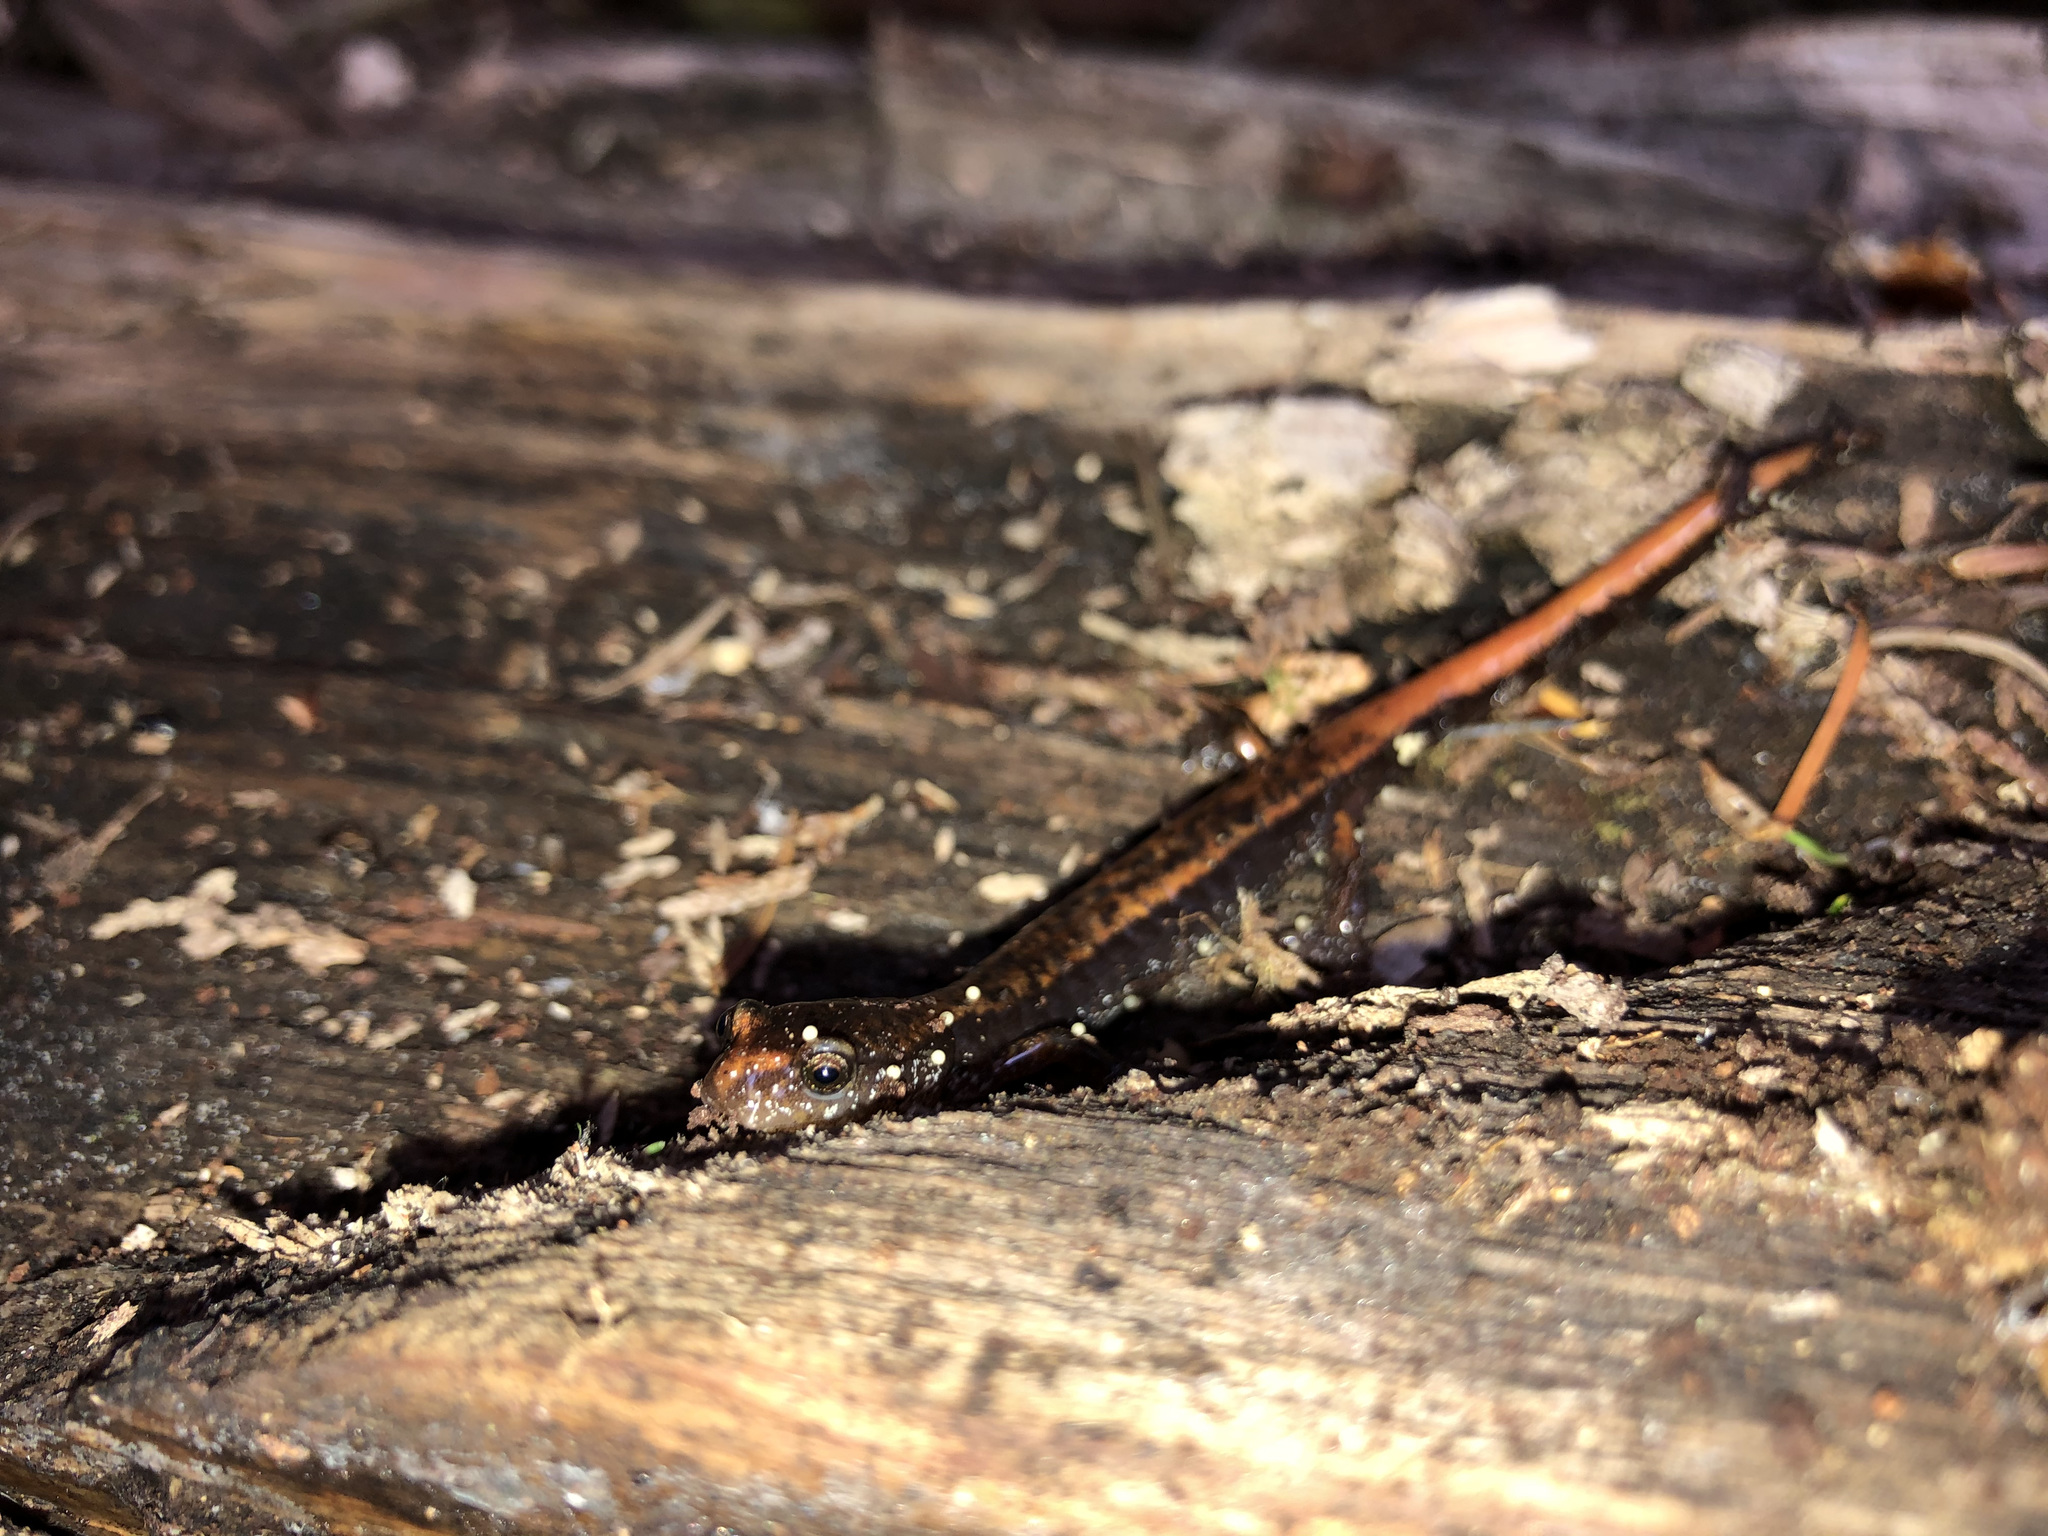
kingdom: Animalia
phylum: Chordata
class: Amphibia
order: Caudata
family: Plethodontidae
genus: Plethodon
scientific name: Plethodon vehiculum
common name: Western red-backed salamander
